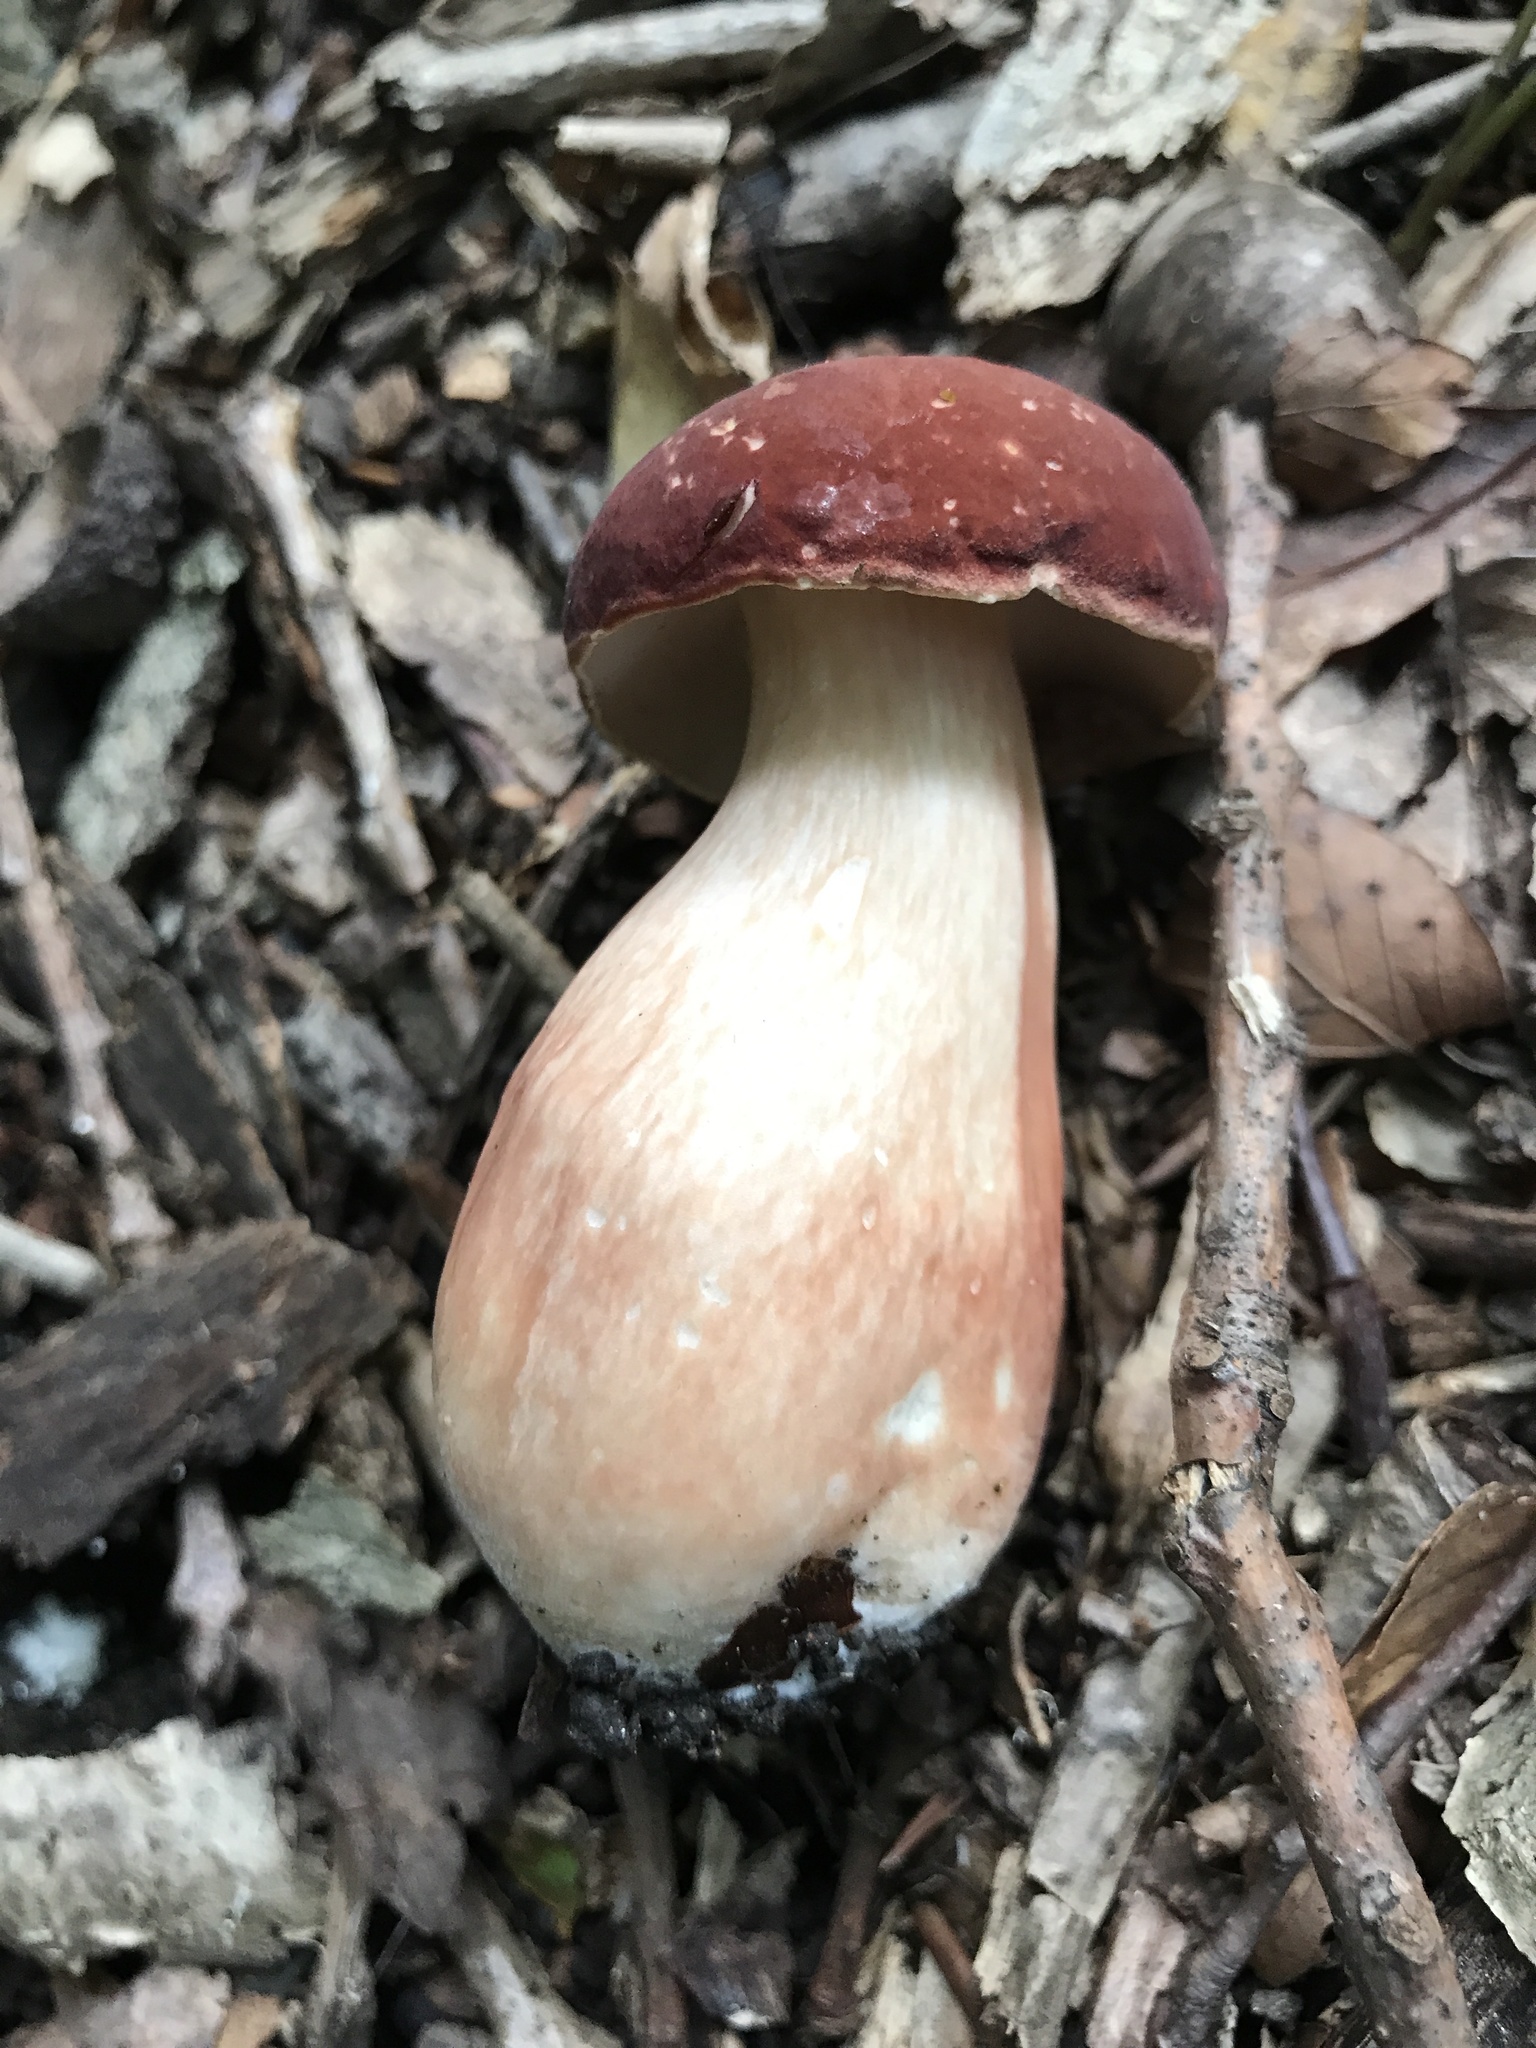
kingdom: Fungi
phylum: Basidiomycota
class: Agaricomycetes
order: Boletales
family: Boletaceae
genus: Xanthoconium
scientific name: Xanthoconium purpureum
